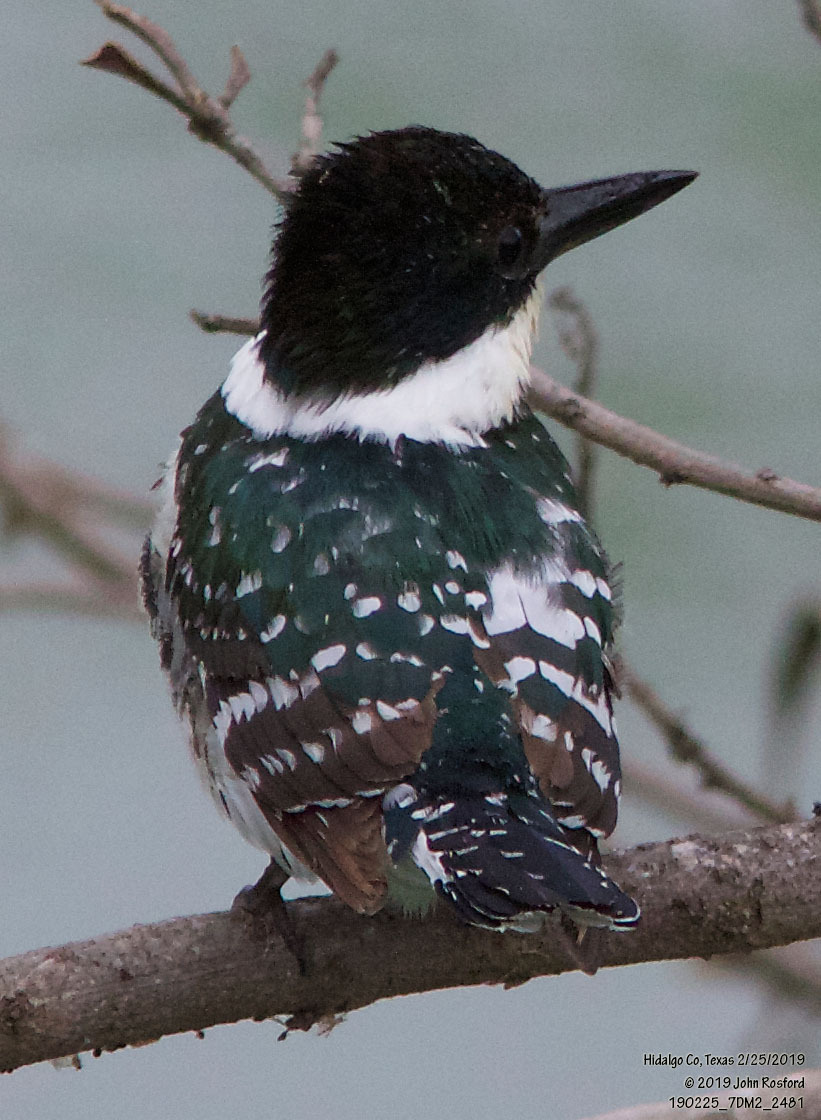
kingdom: Animalia
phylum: Chordata
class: Aves
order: Coraciiformes
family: Alcedinidae
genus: Chloroceryle
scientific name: Chloroceryle americana
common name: Green kingfisher
